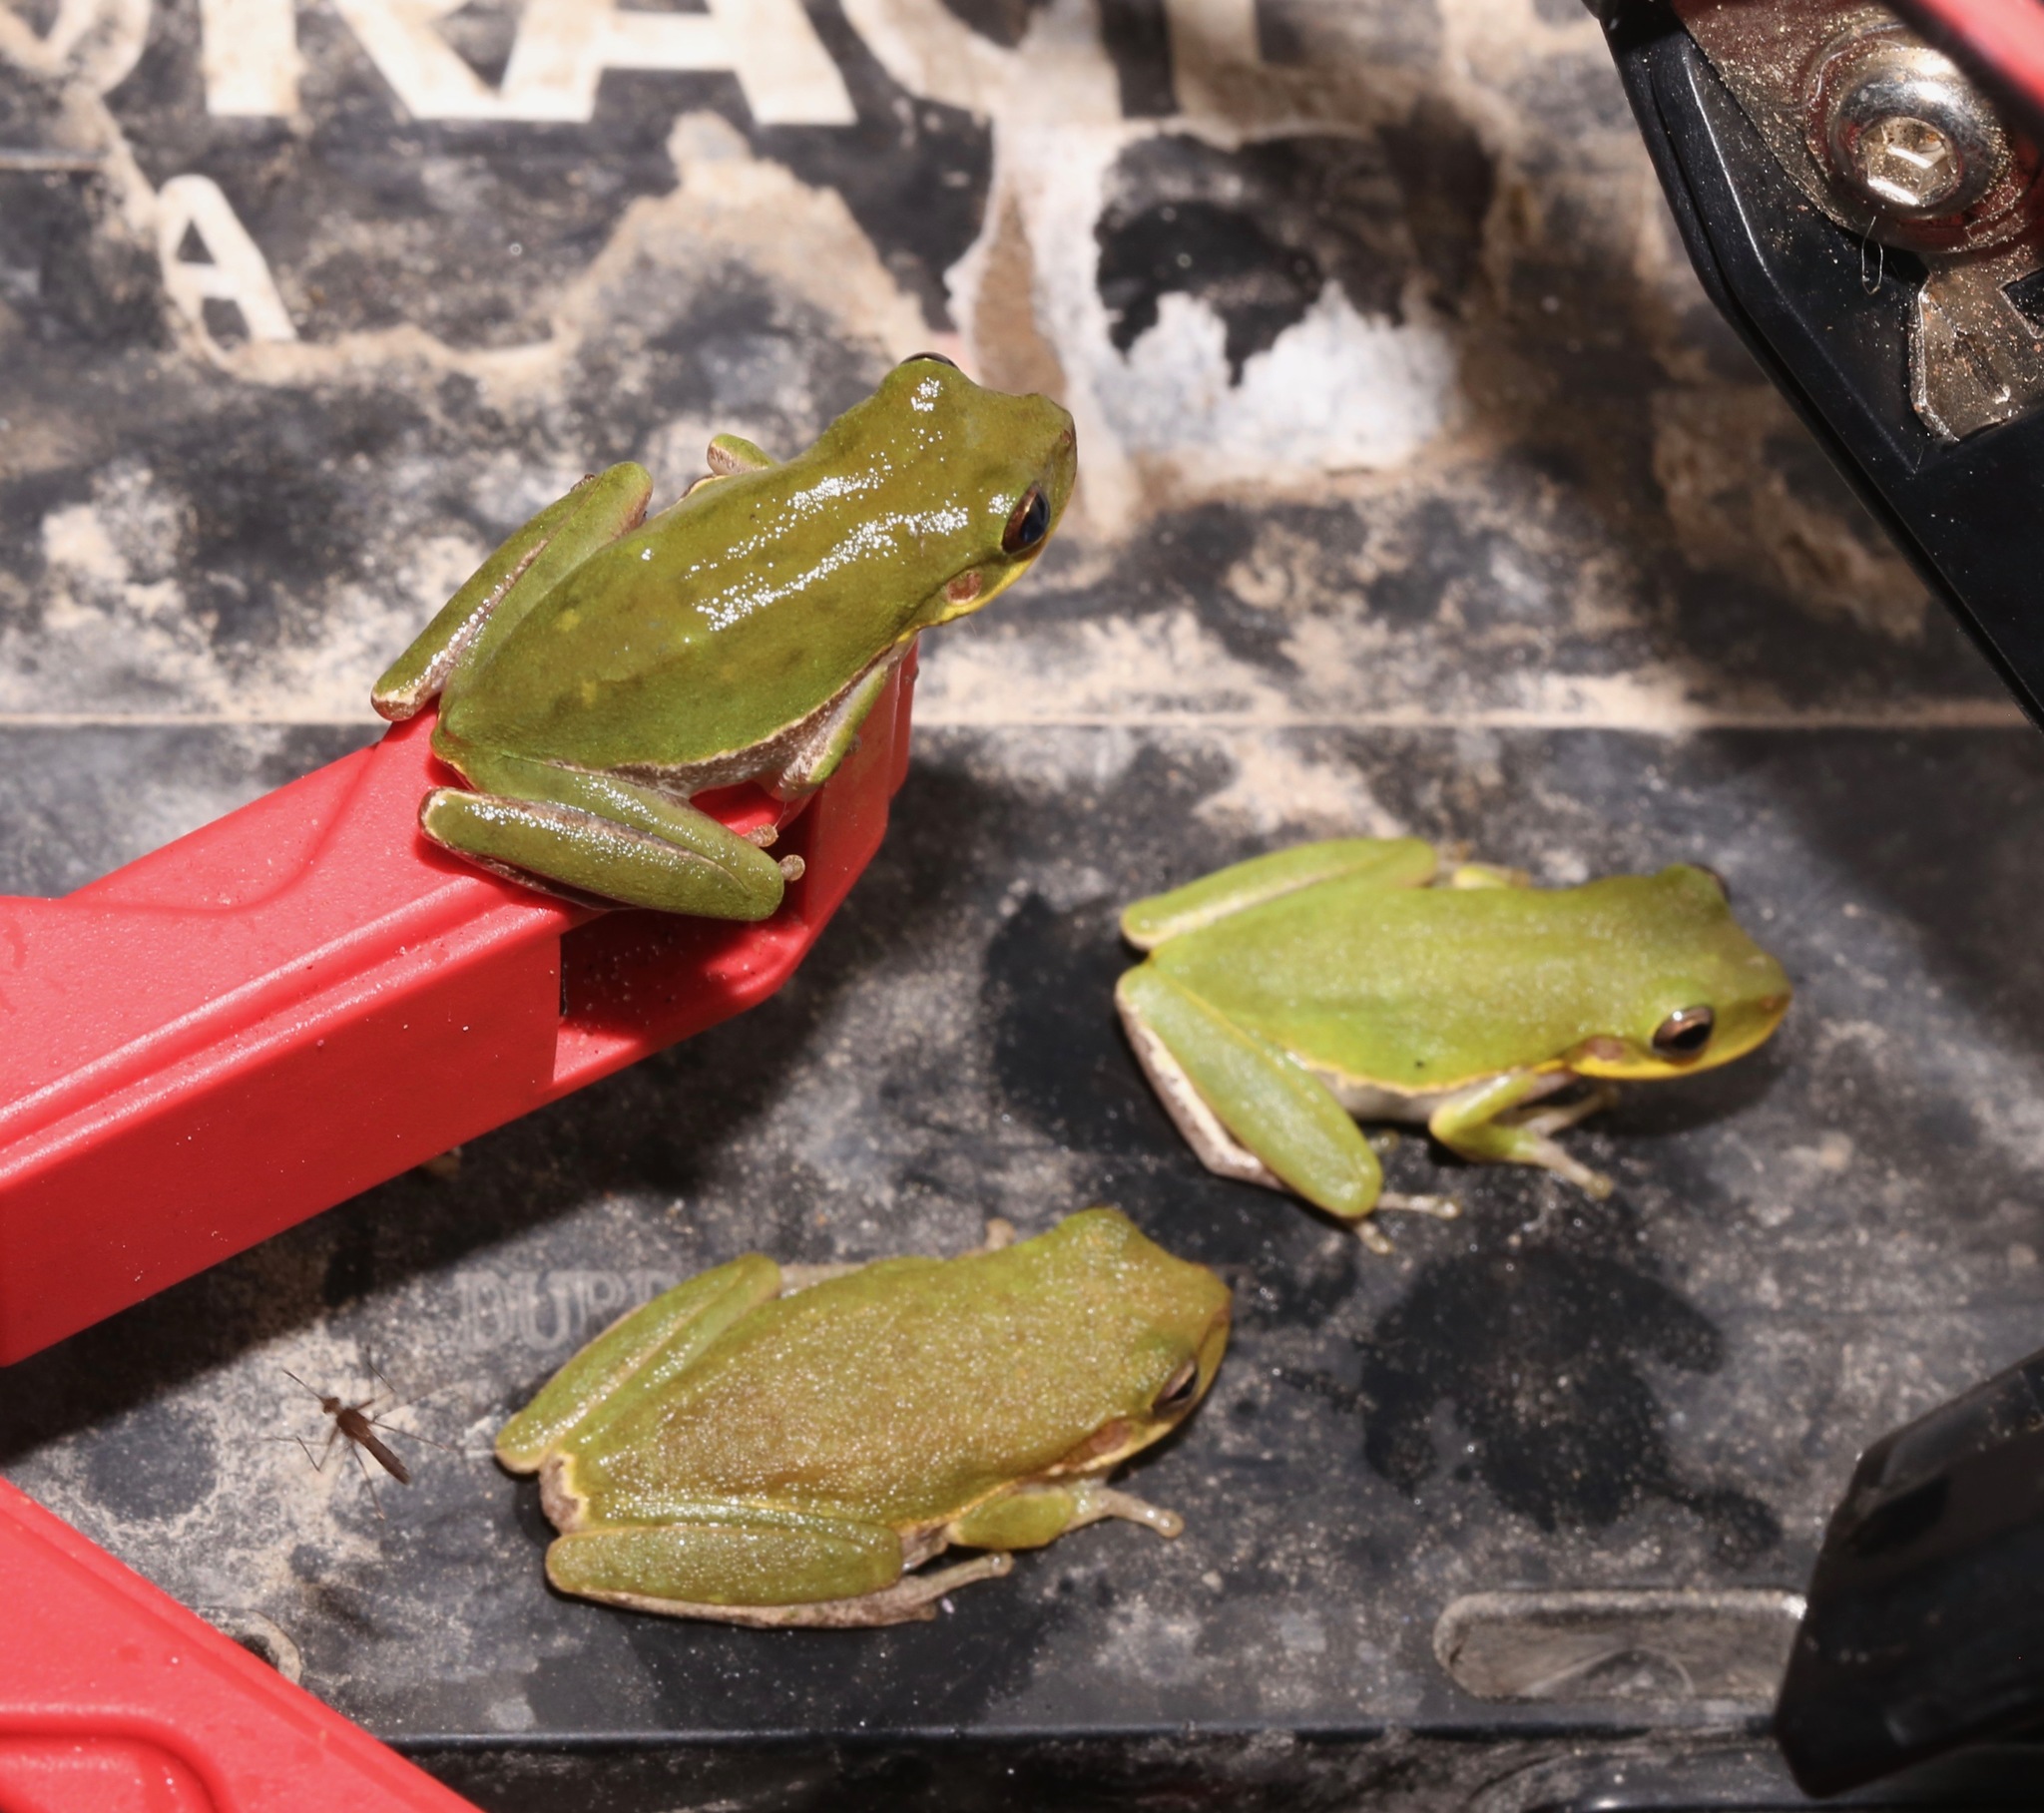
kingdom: Animalia
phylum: Chordata
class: Amphibia
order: Anura
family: Hylidae
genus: Dryophytes
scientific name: Dryophytes squirellus
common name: Squirrel treefrog
